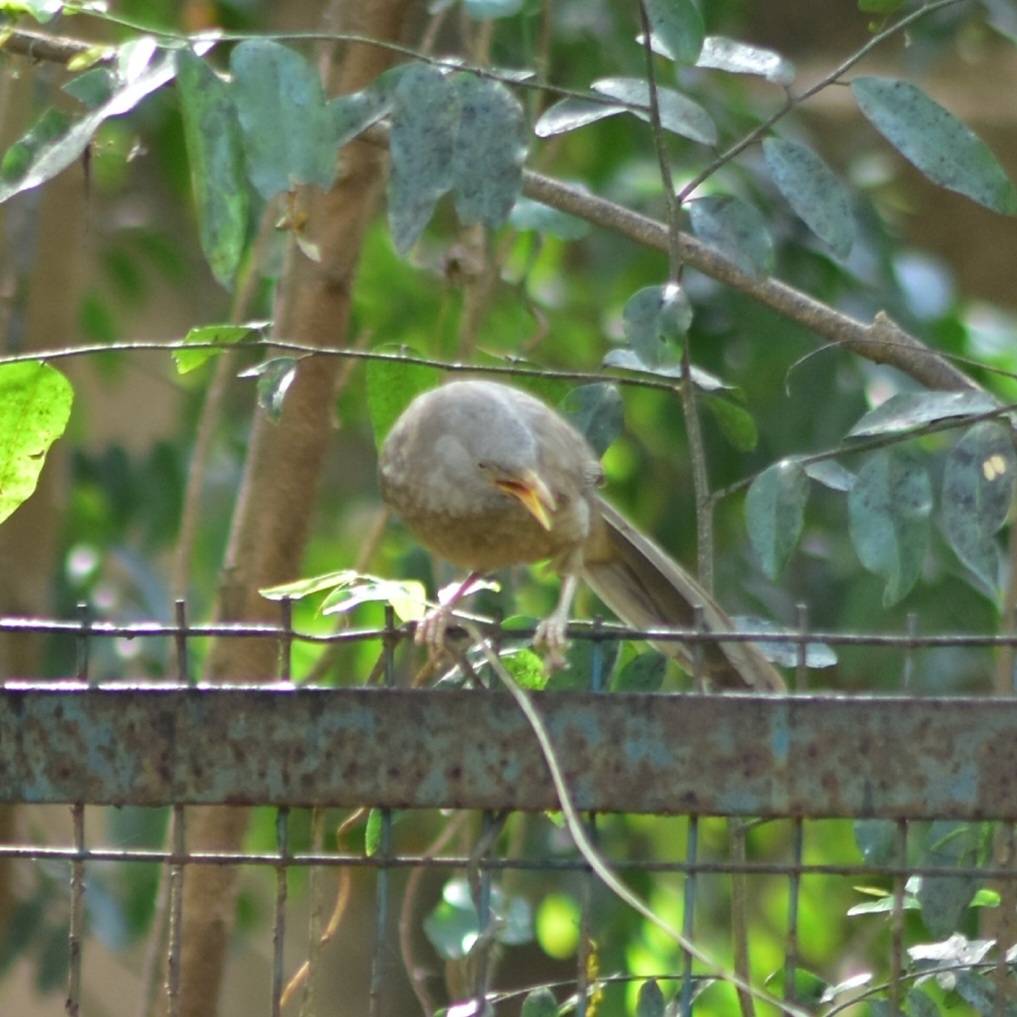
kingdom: Animalia
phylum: Chordata
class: Aves
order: Passeriformes
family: Leiothrichidae
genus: Turdoides
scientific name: Turdoides striata
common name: Jungle babbler
